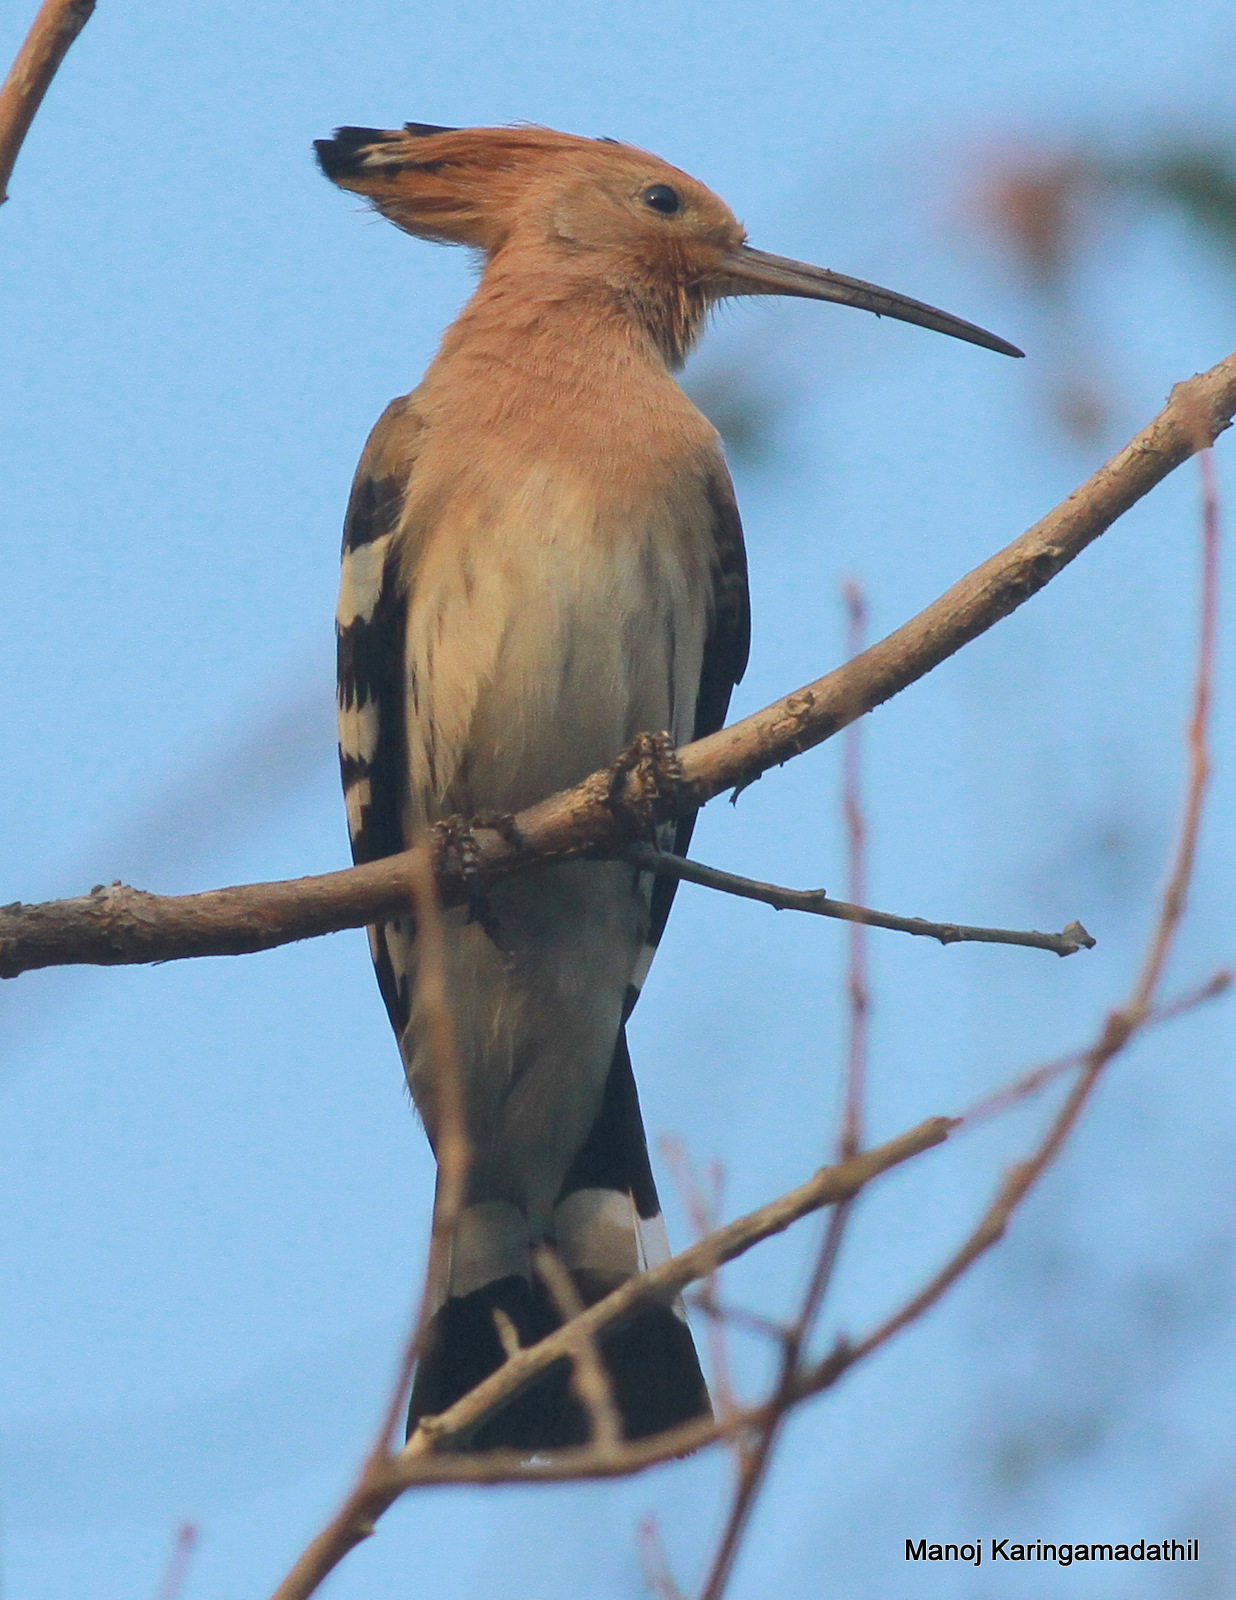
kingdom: Animalia
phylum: Chordata
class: Aves
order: Bucerotiformes
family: Upupidae
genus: Upupa
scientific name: Upupa epops
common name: Eurasian hoopoe
